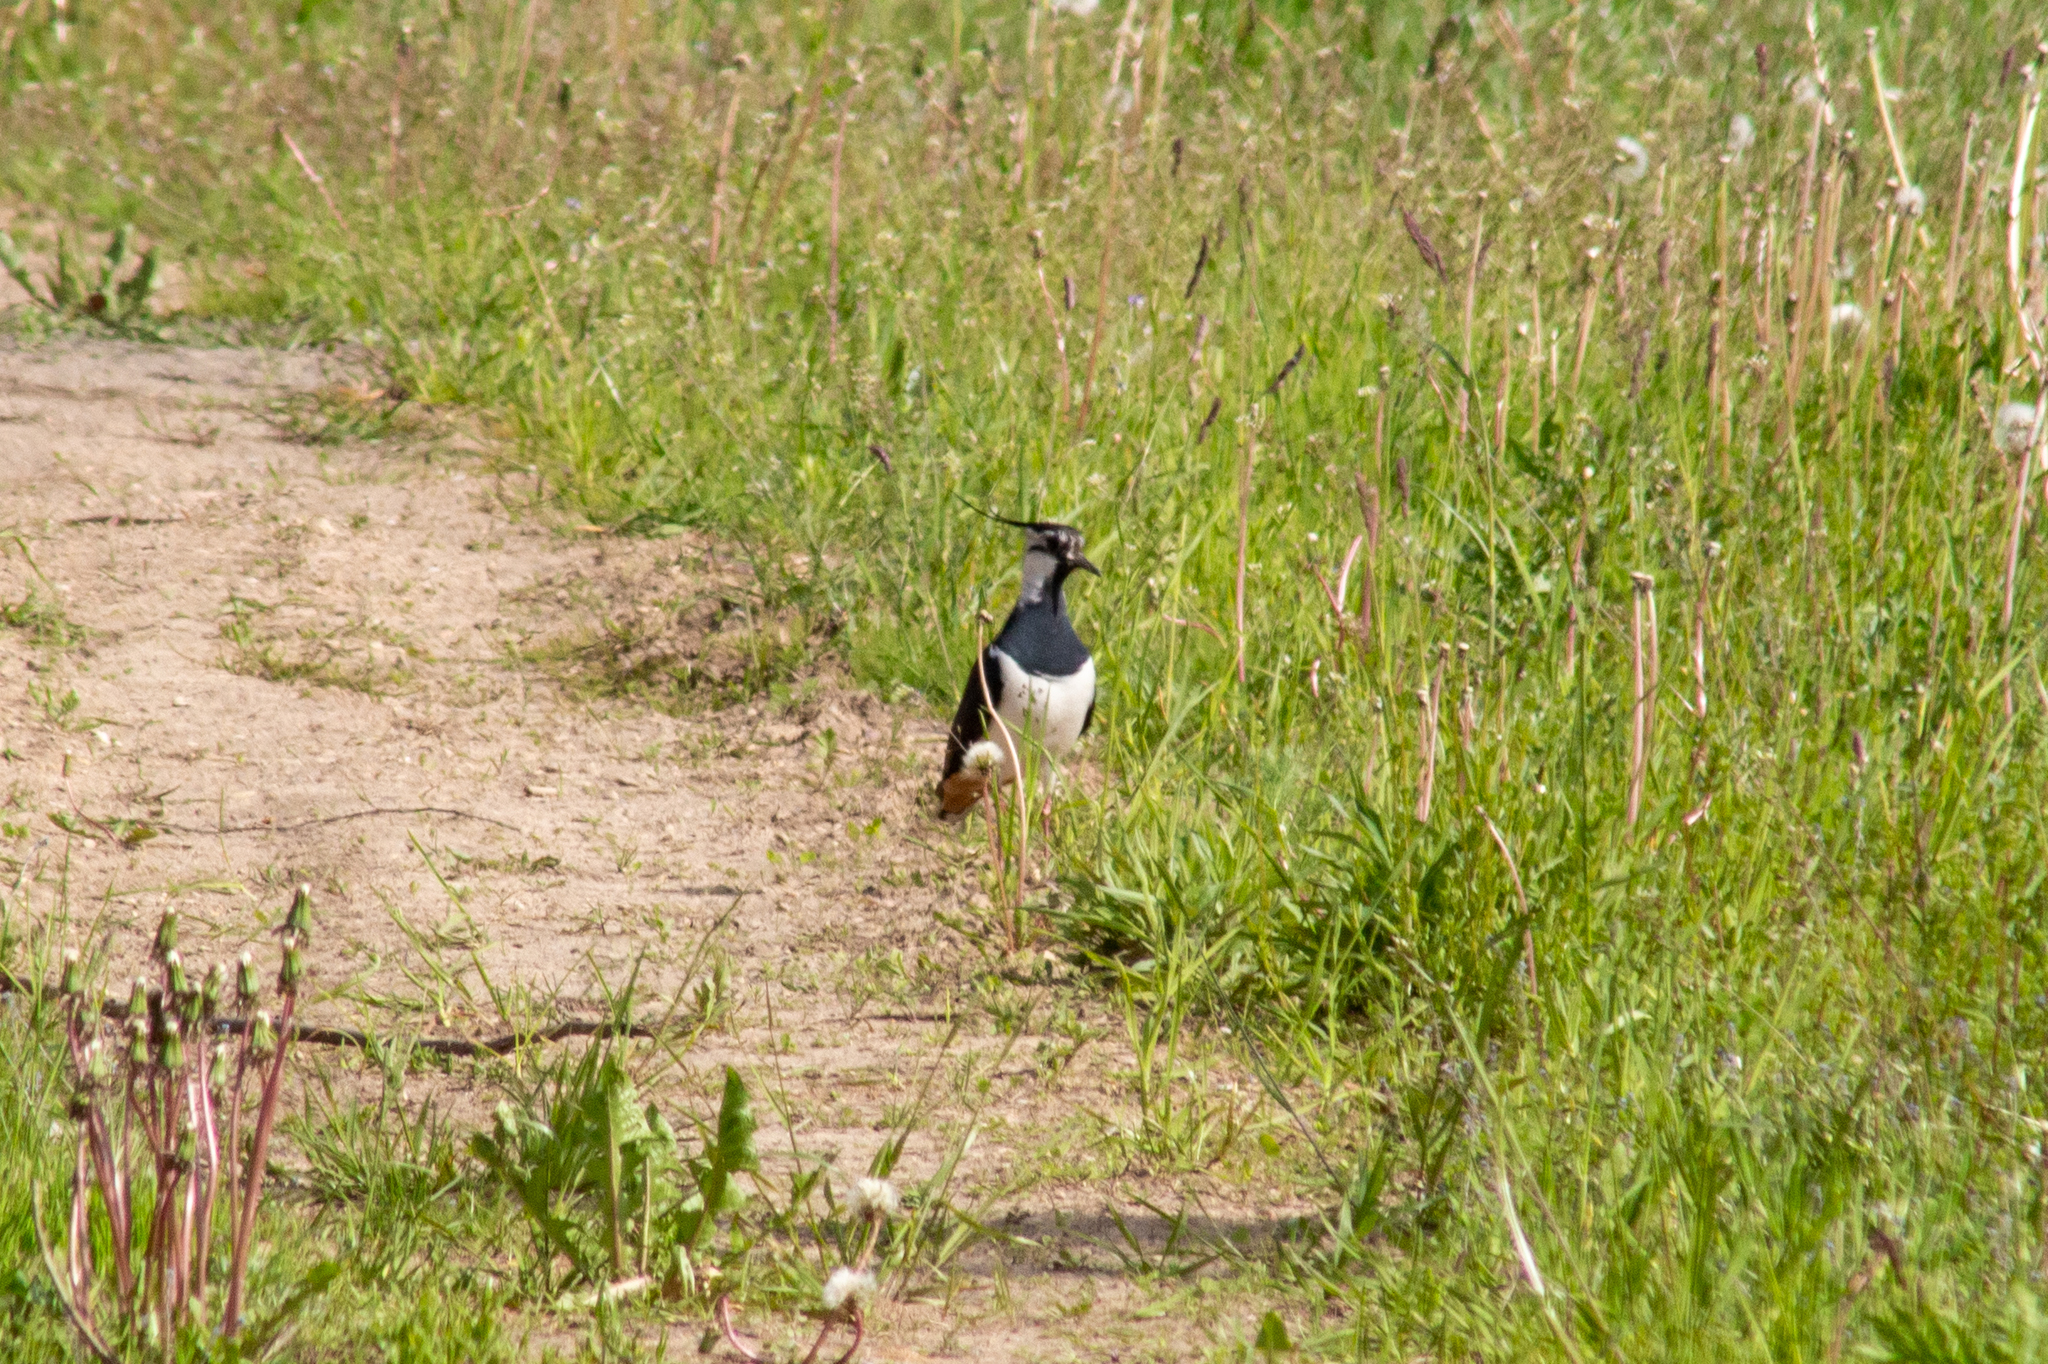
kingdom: Animalia
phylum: Chordata
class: Aves
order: Charadriiformes
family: Charadriidae
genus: Vanellus
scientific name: Vanellus vanellus
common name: Northern lapwing
